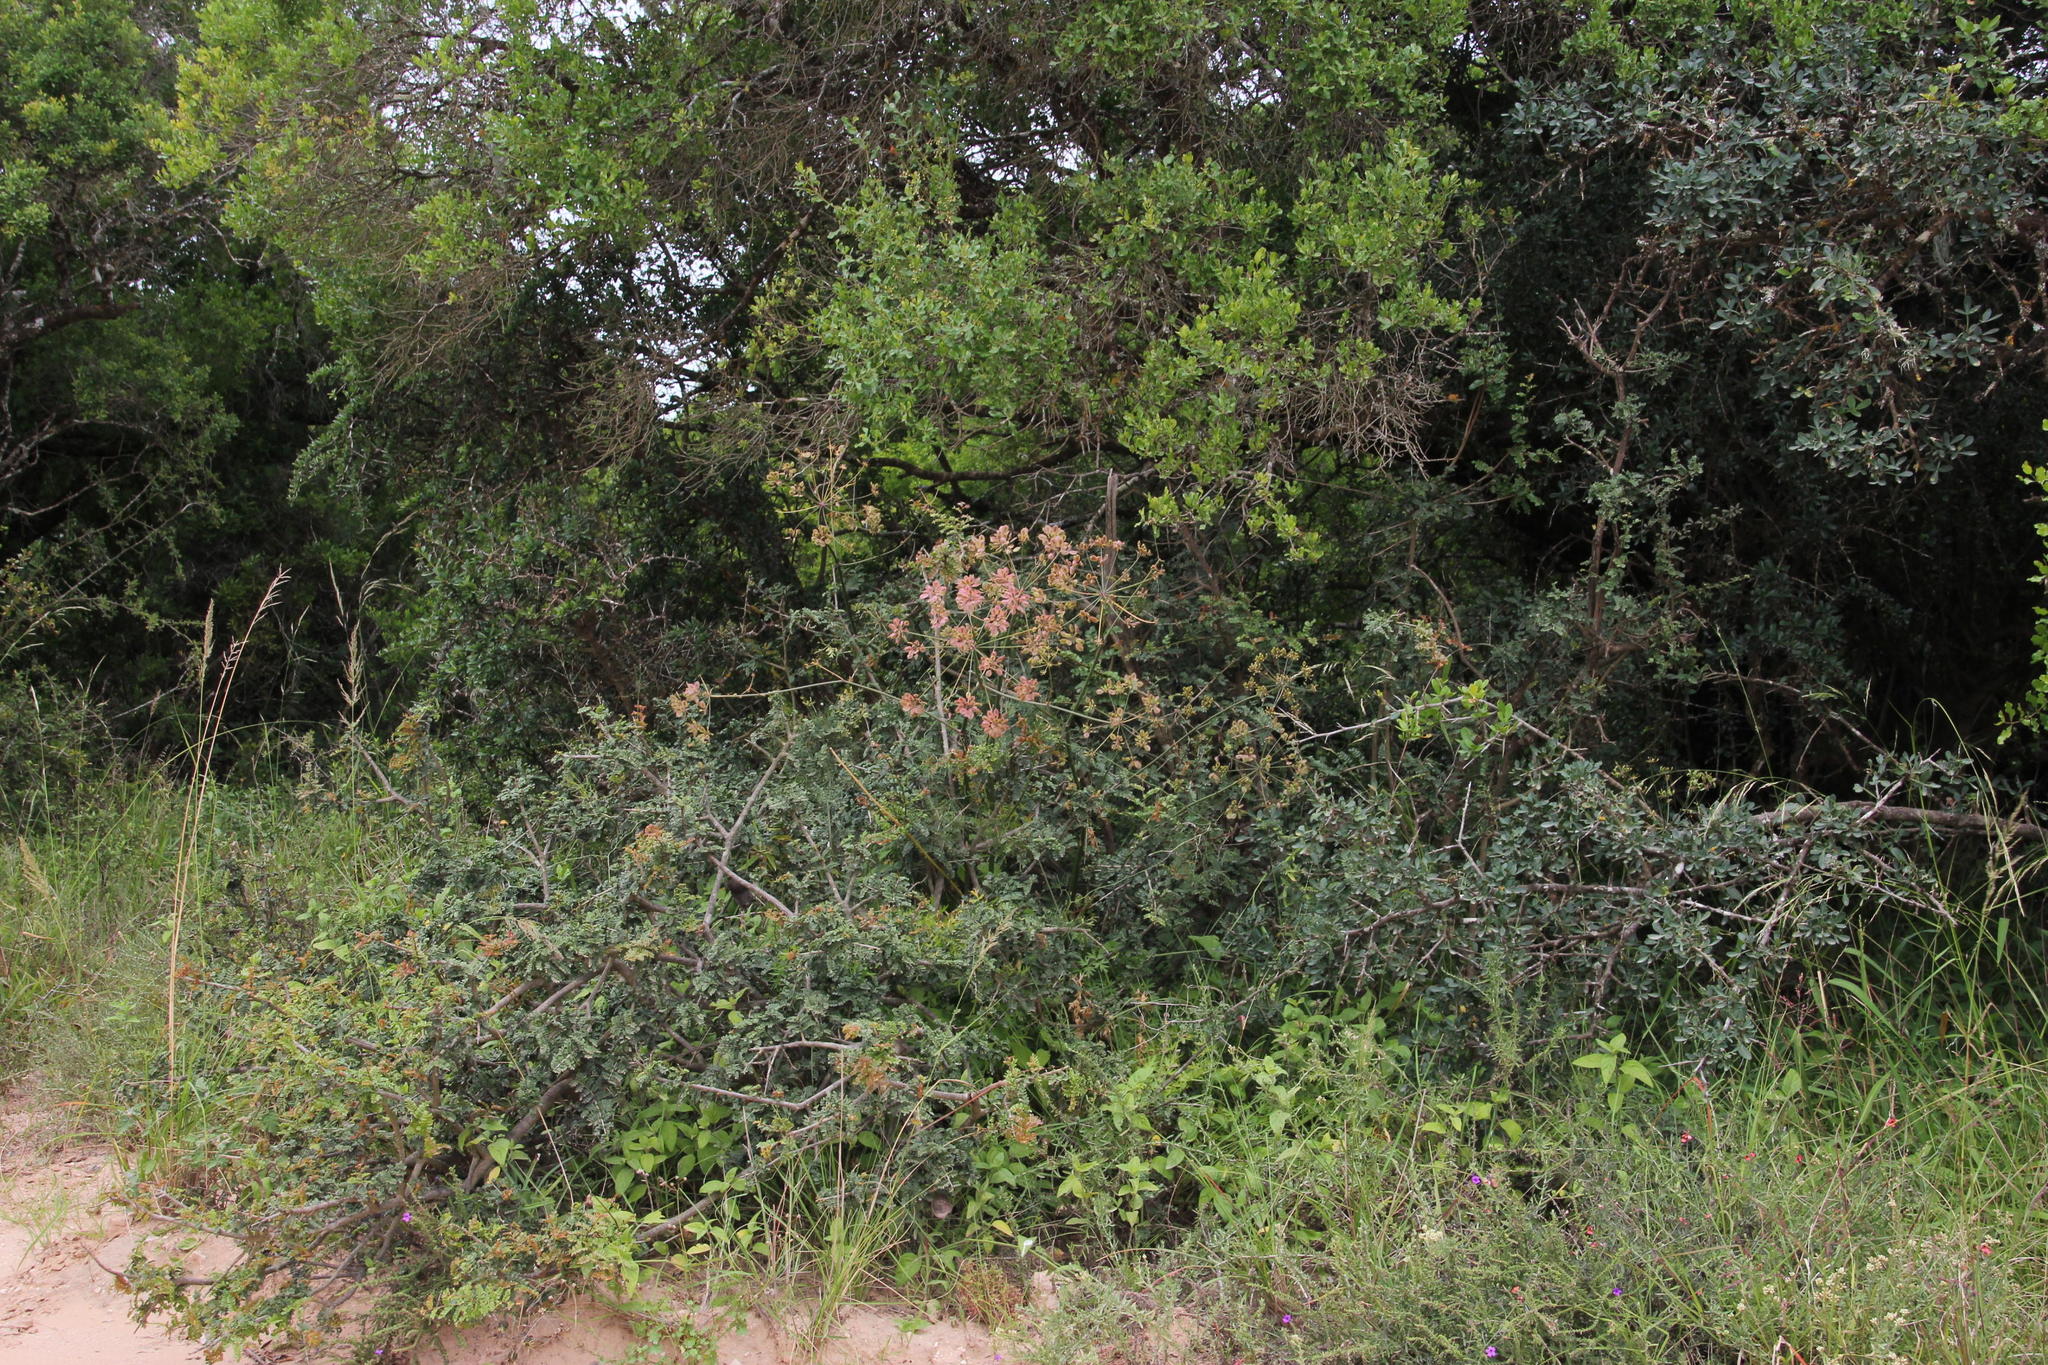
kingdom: Plantae
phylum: Tracheophyta
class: Magnoliopsida
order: Apiales
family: Apiaceae
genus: Cynorhiza
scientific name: Cynorhiza typica
